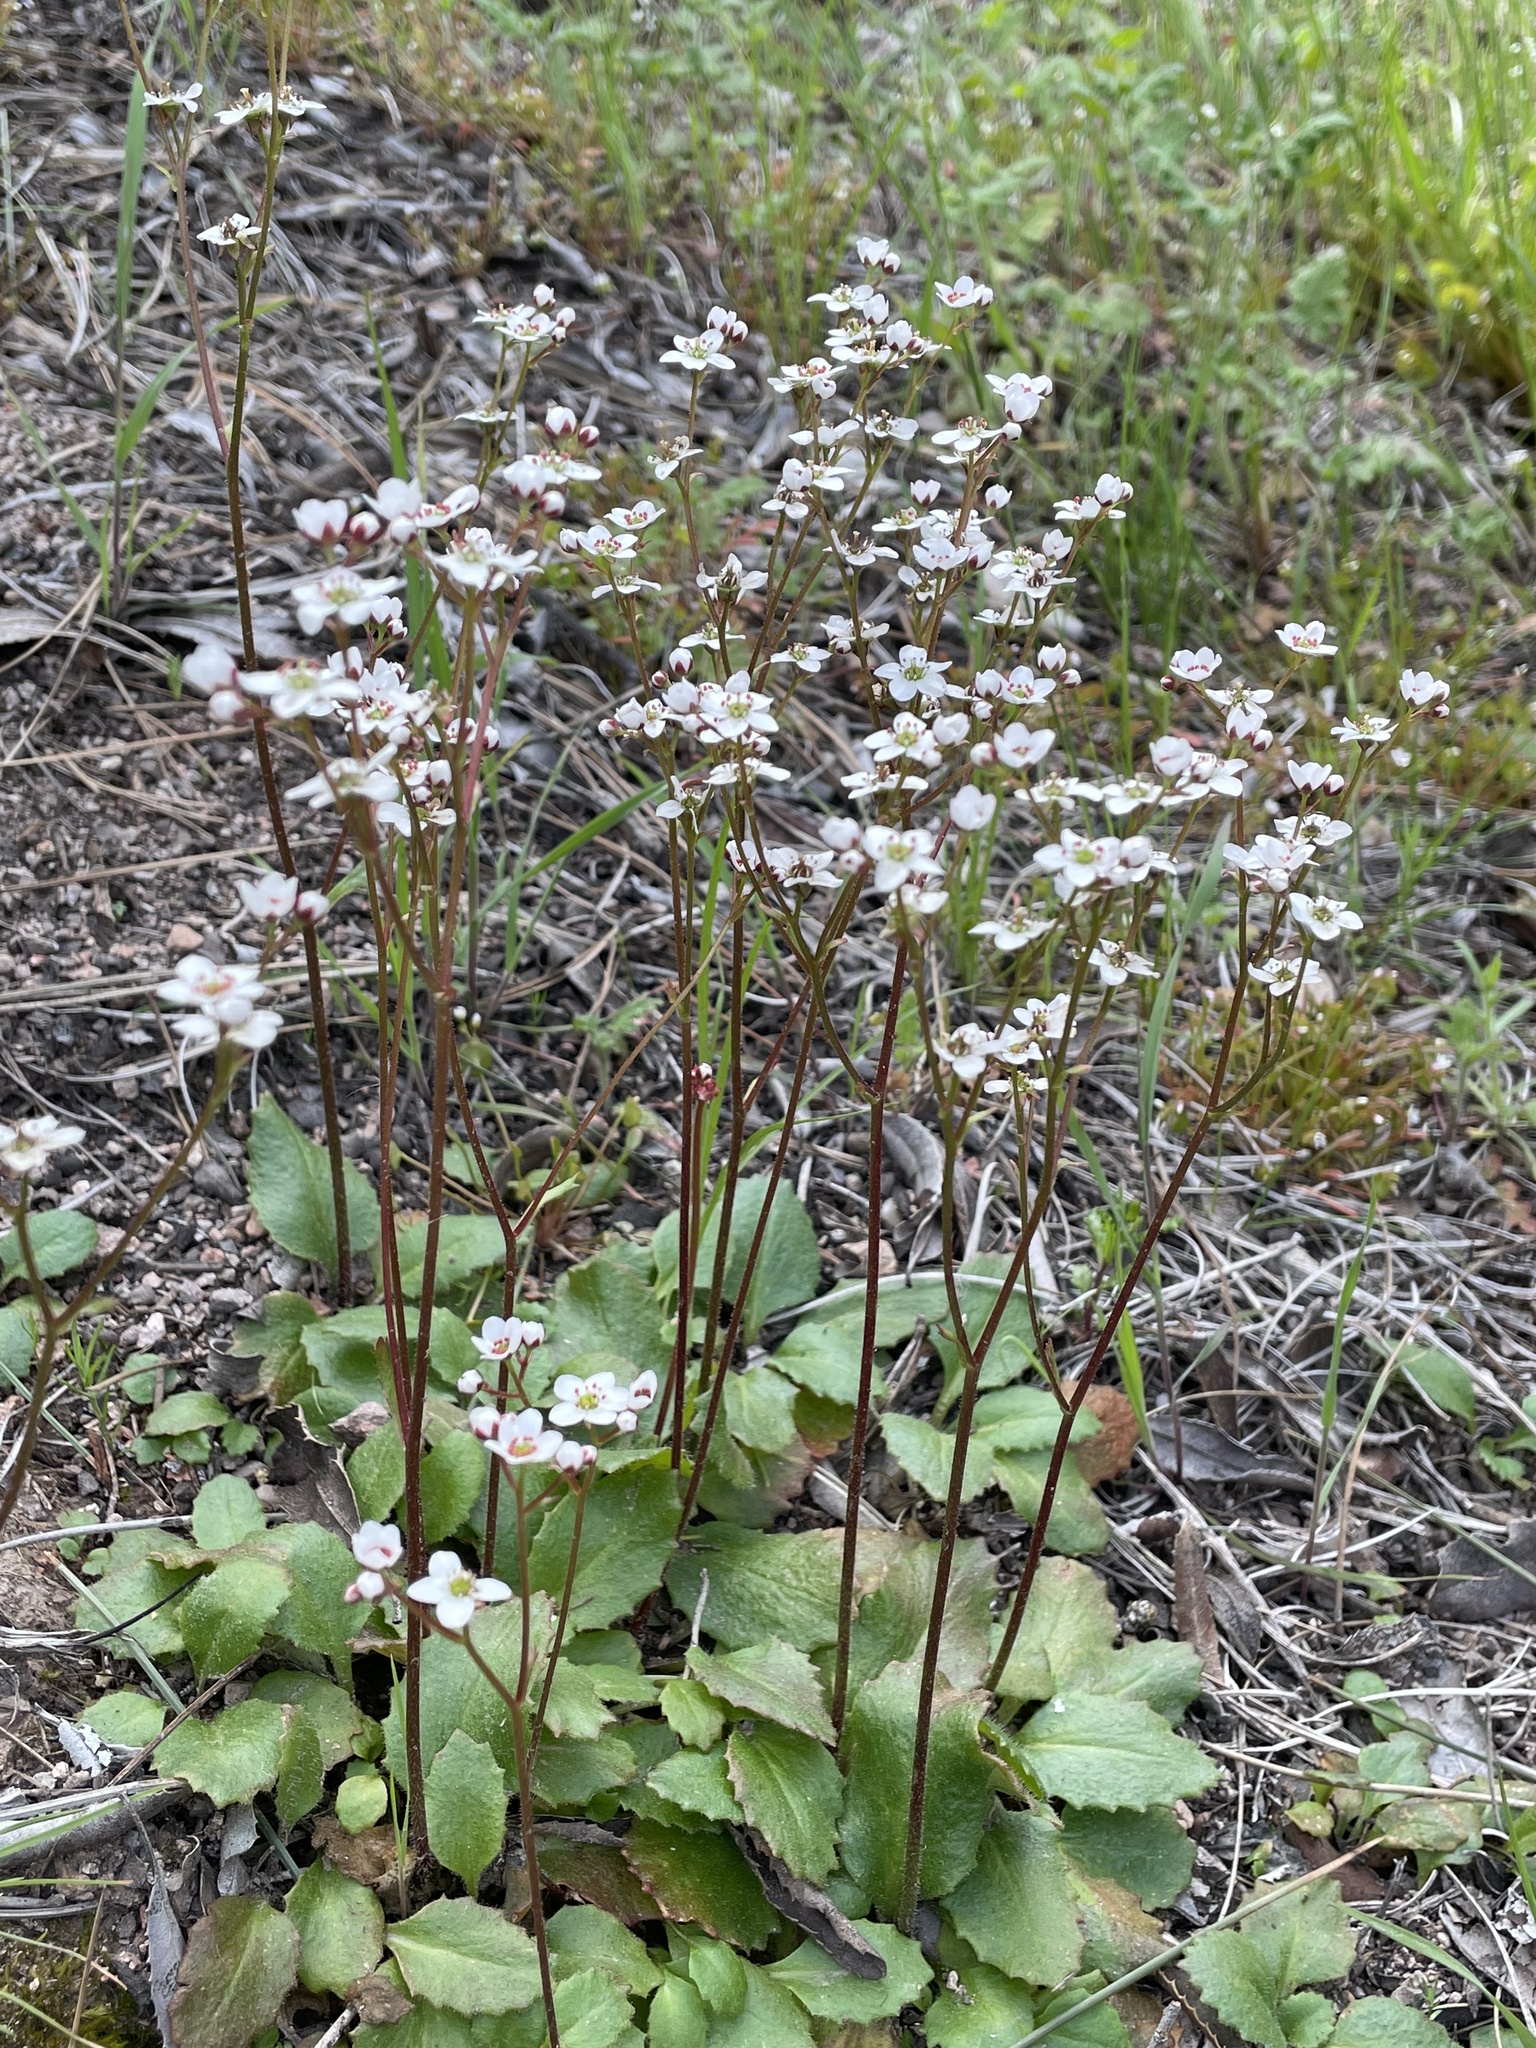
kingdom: Plantae
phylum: Tracheophyta
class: Magnoliopsida
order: Saxifragales
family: Saxifragaceae
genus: Micranthes
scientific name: Micranthes californica
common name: California saxifrage
